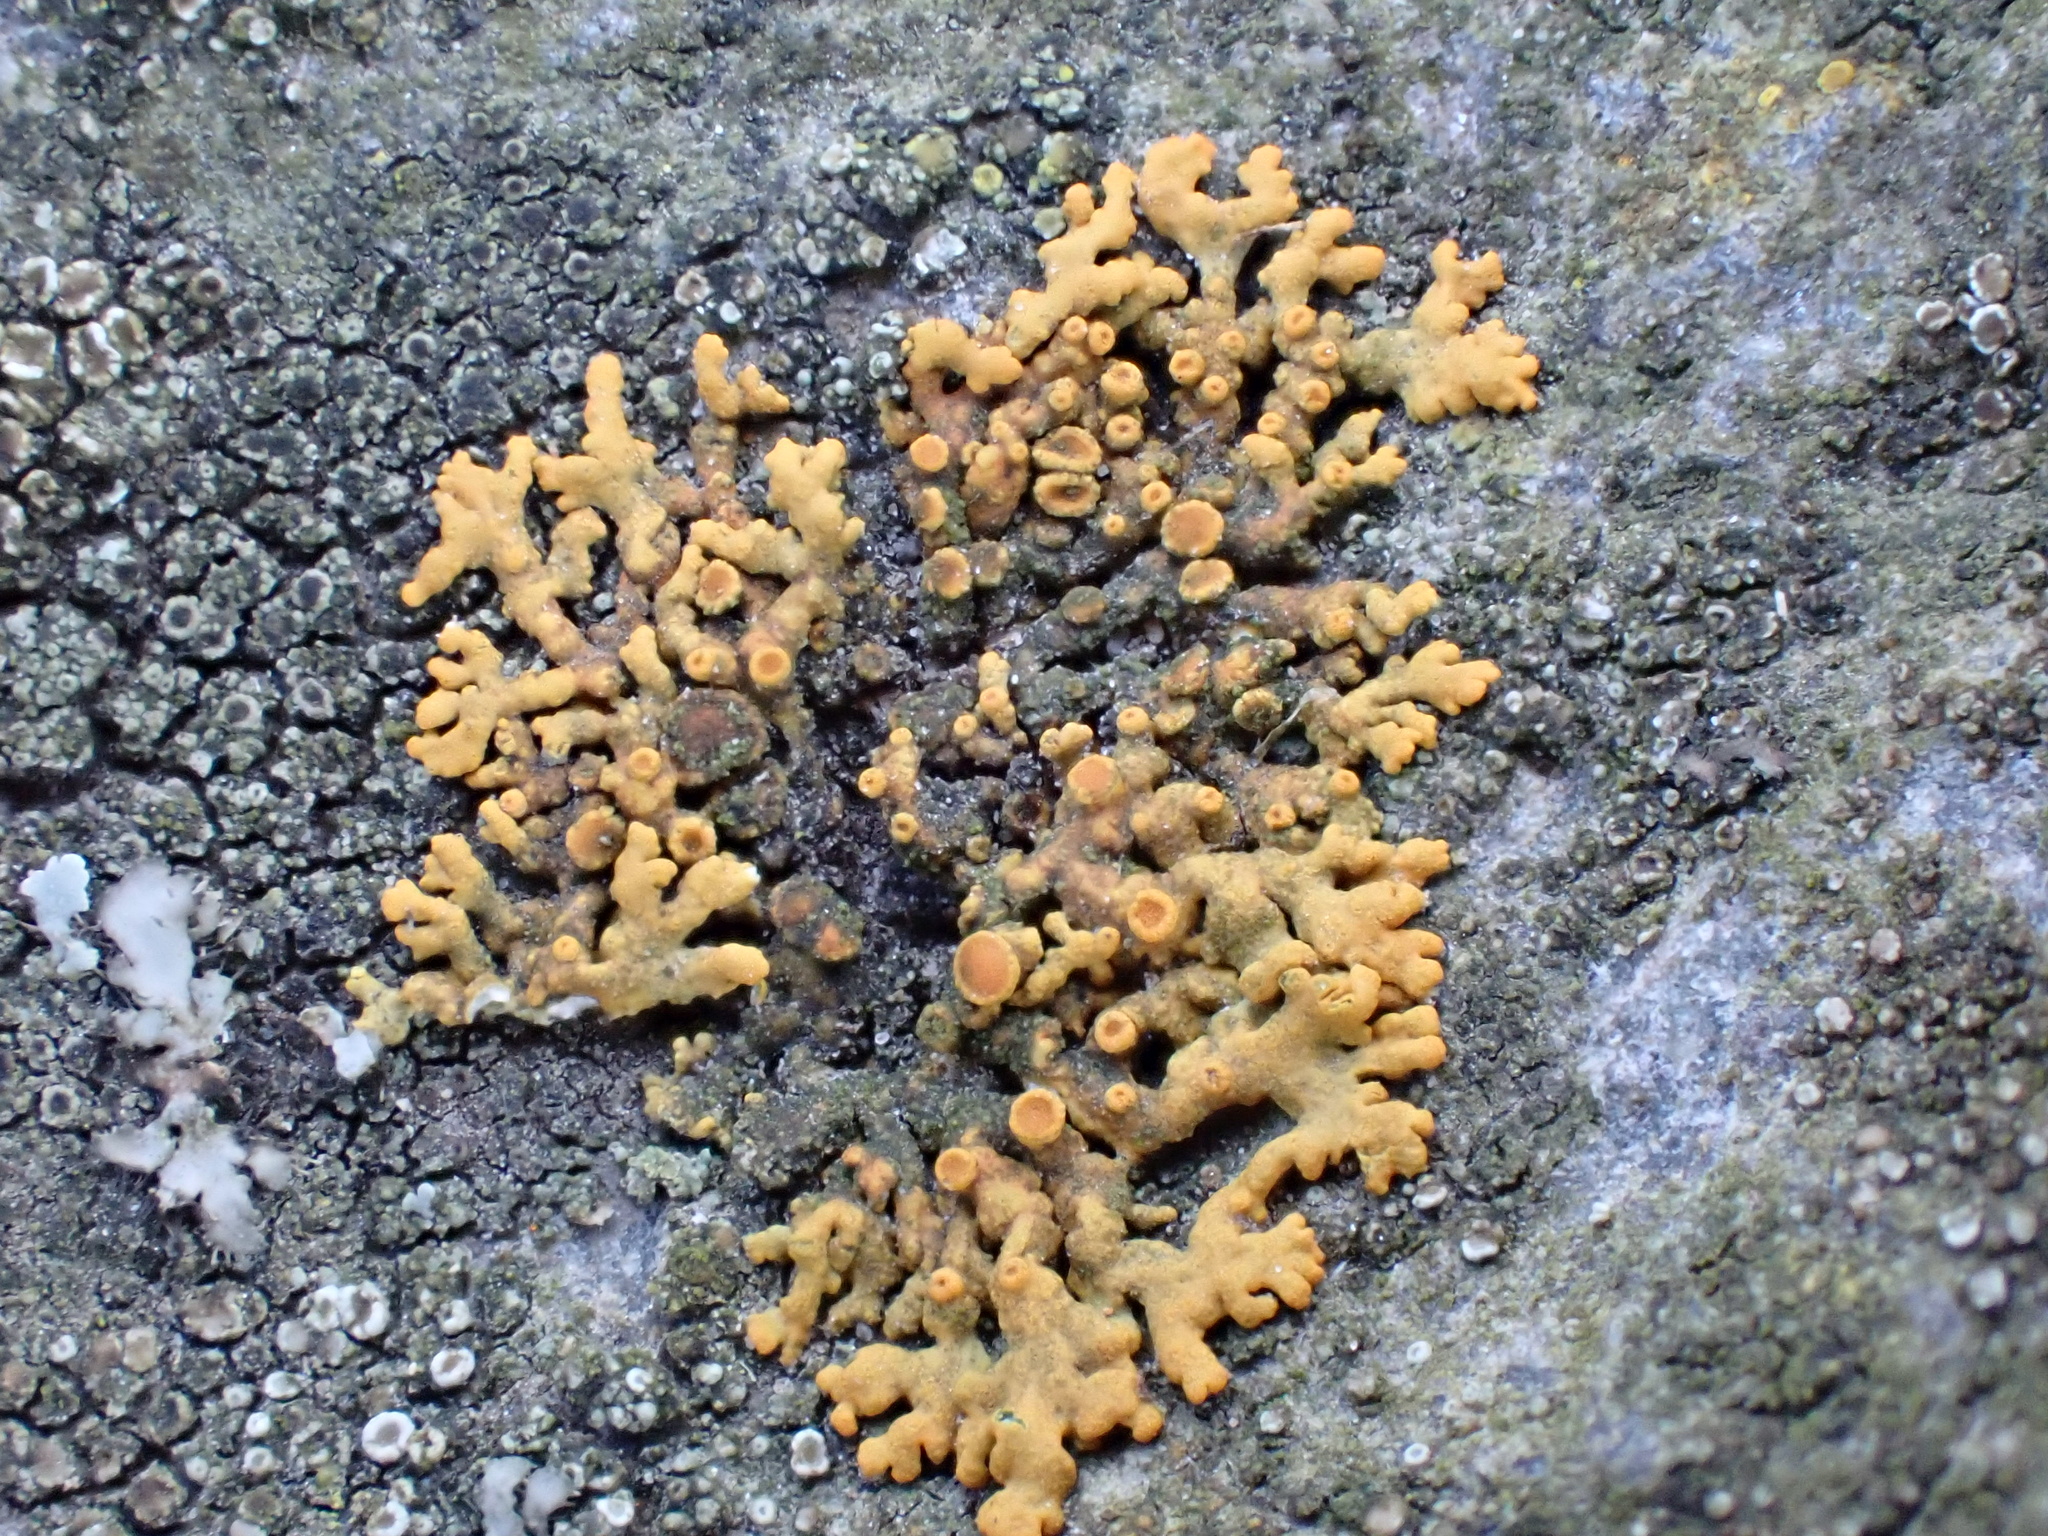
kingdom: Fungi
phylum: Ascomycota
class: Lecanoromycetes
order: Teloschistales
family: Teloschistaceae
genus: Xanthoria
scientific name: Xanthoria elegans
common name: Elegant sunburst lichen
